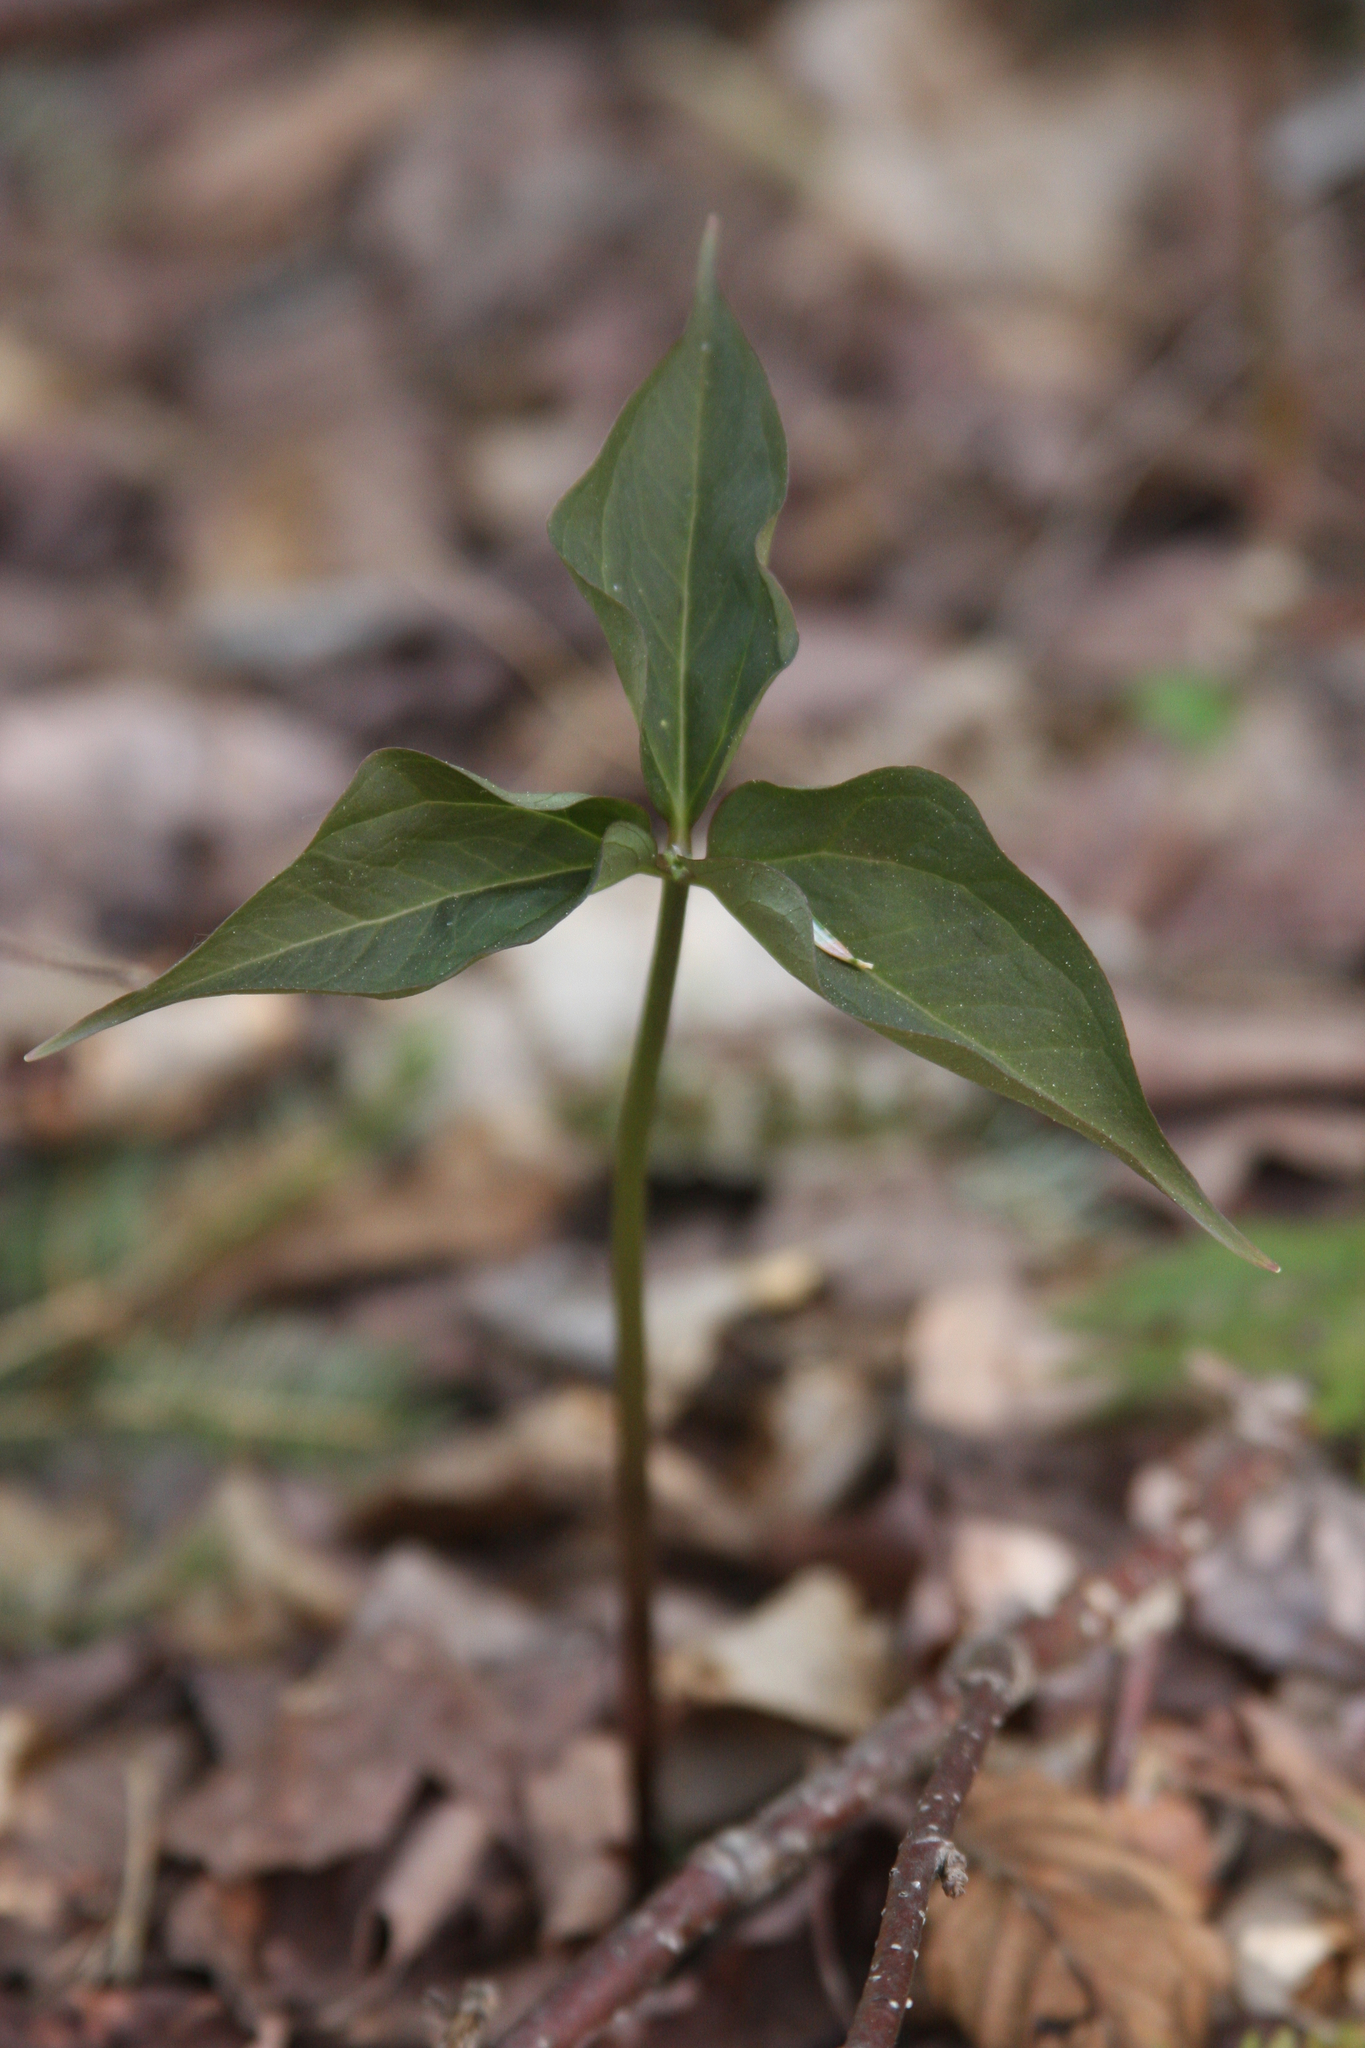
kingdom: Plantae
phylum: Tracheophyta
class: Liliopsida
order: Liliales
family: Melanthiaceae
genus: Trillium
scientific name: Trillium undulatum
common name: Paint trillium
